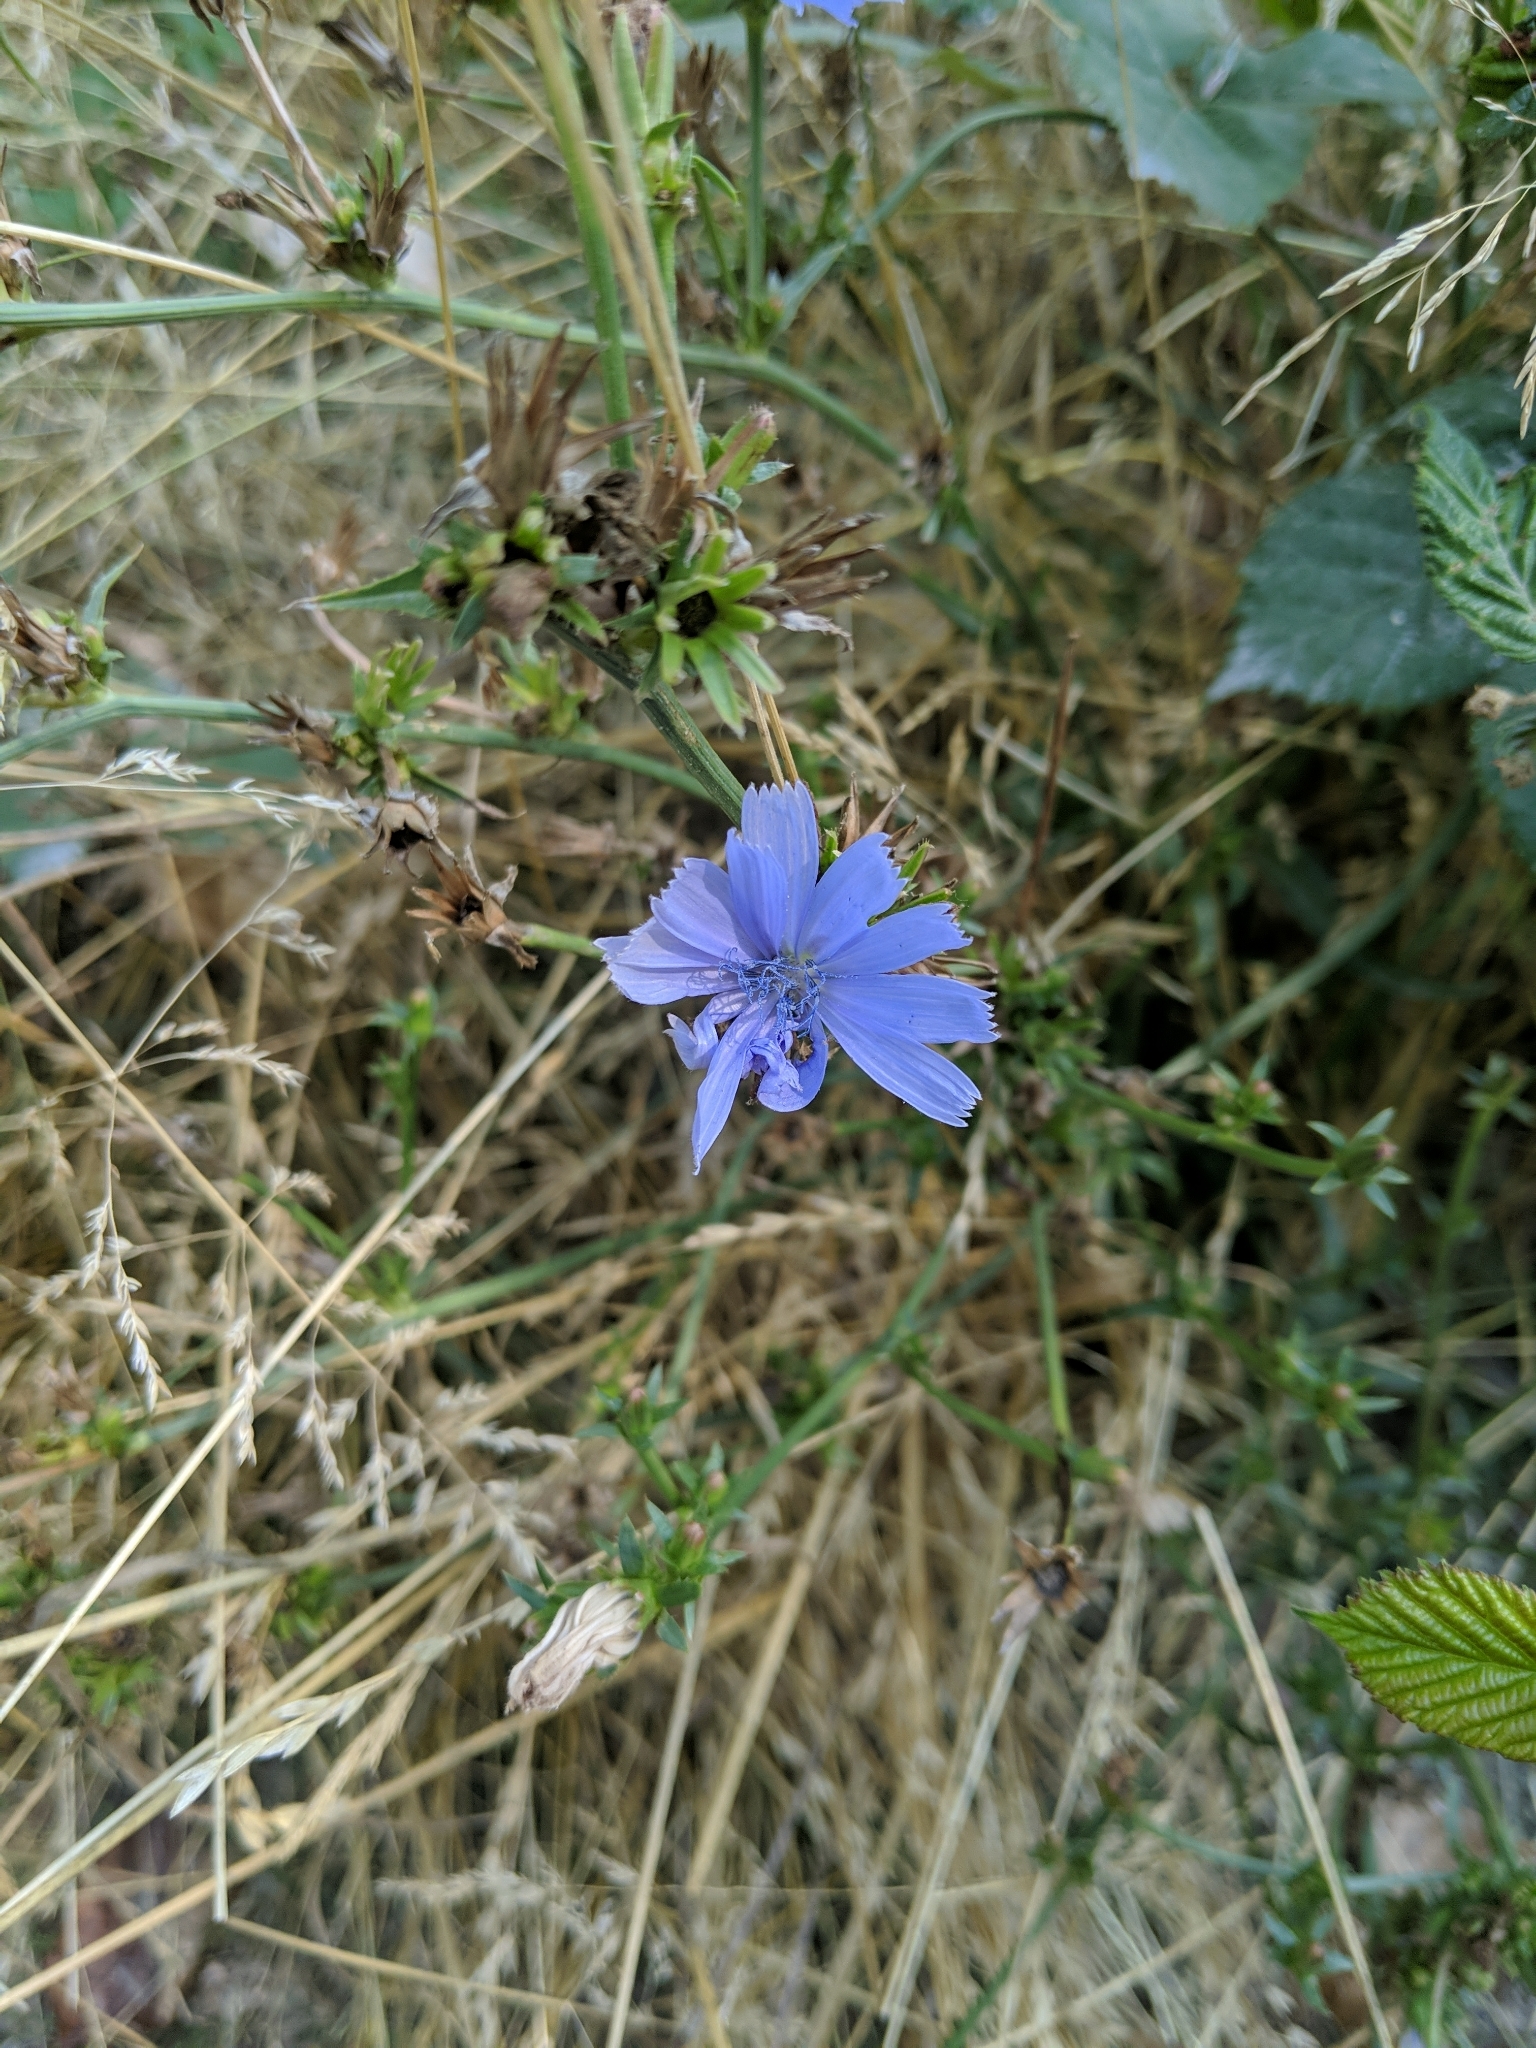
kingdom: Plantae
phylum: Tracheophyta
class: Magnoliopsida
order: Asterales
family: Asteraceae
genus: Cichorium
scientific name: Cichorium intybus
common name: Chicory
